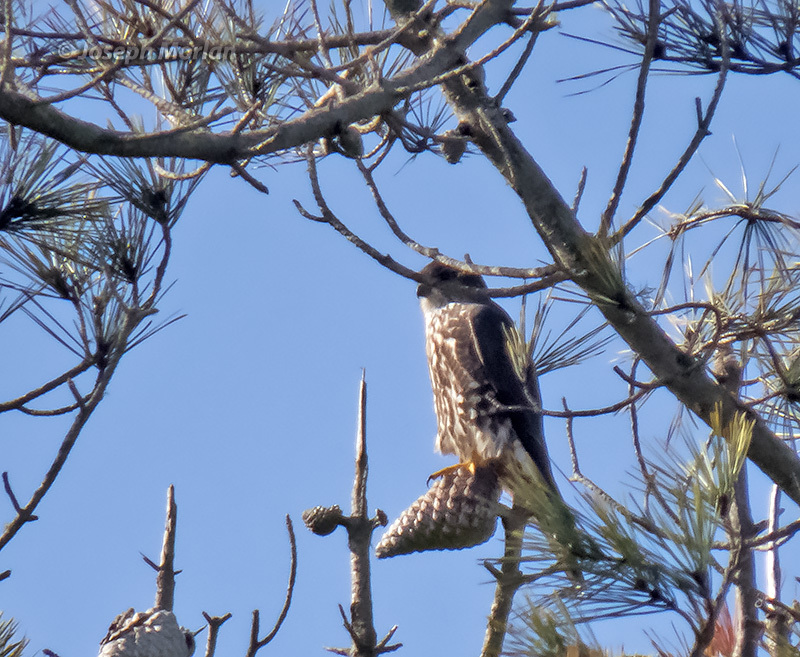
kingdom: Animalia
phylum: Chordata
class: Aves
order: Falconiformes
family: Falconidae
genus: Falco
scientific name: Falco columbarius
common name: Merlin
